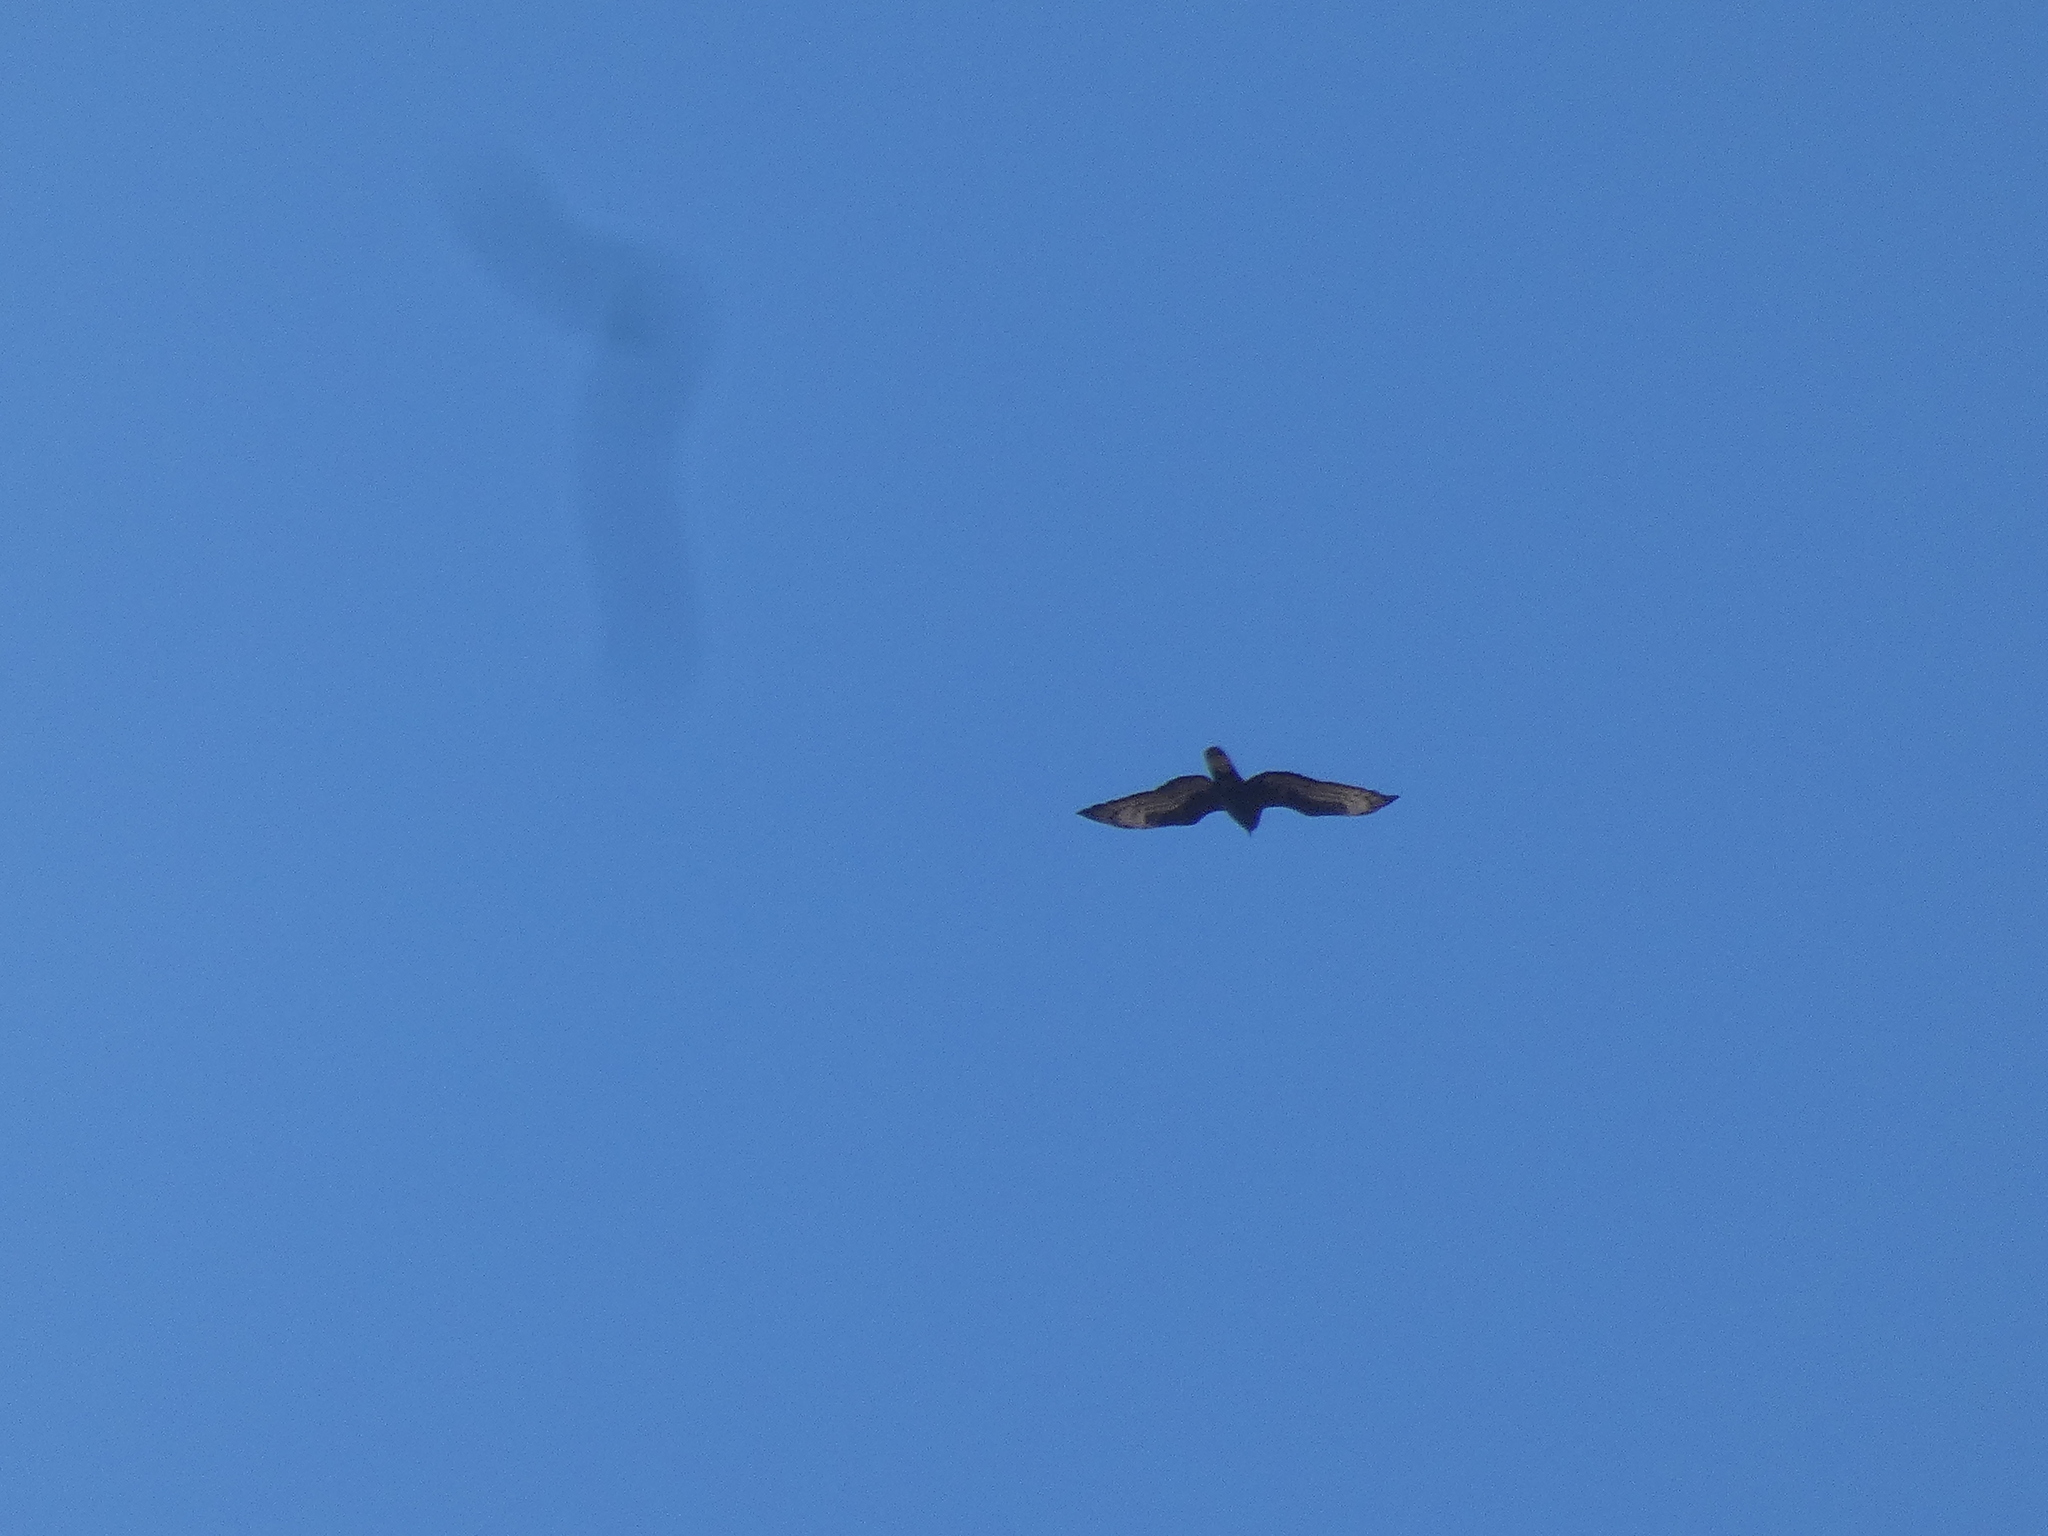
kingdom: Animalia
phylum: Chordata
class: Aves
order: Accipitriformes
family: Accipitridae
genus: Pernis
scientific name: Pernis apivorus
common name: European honey buzzard
